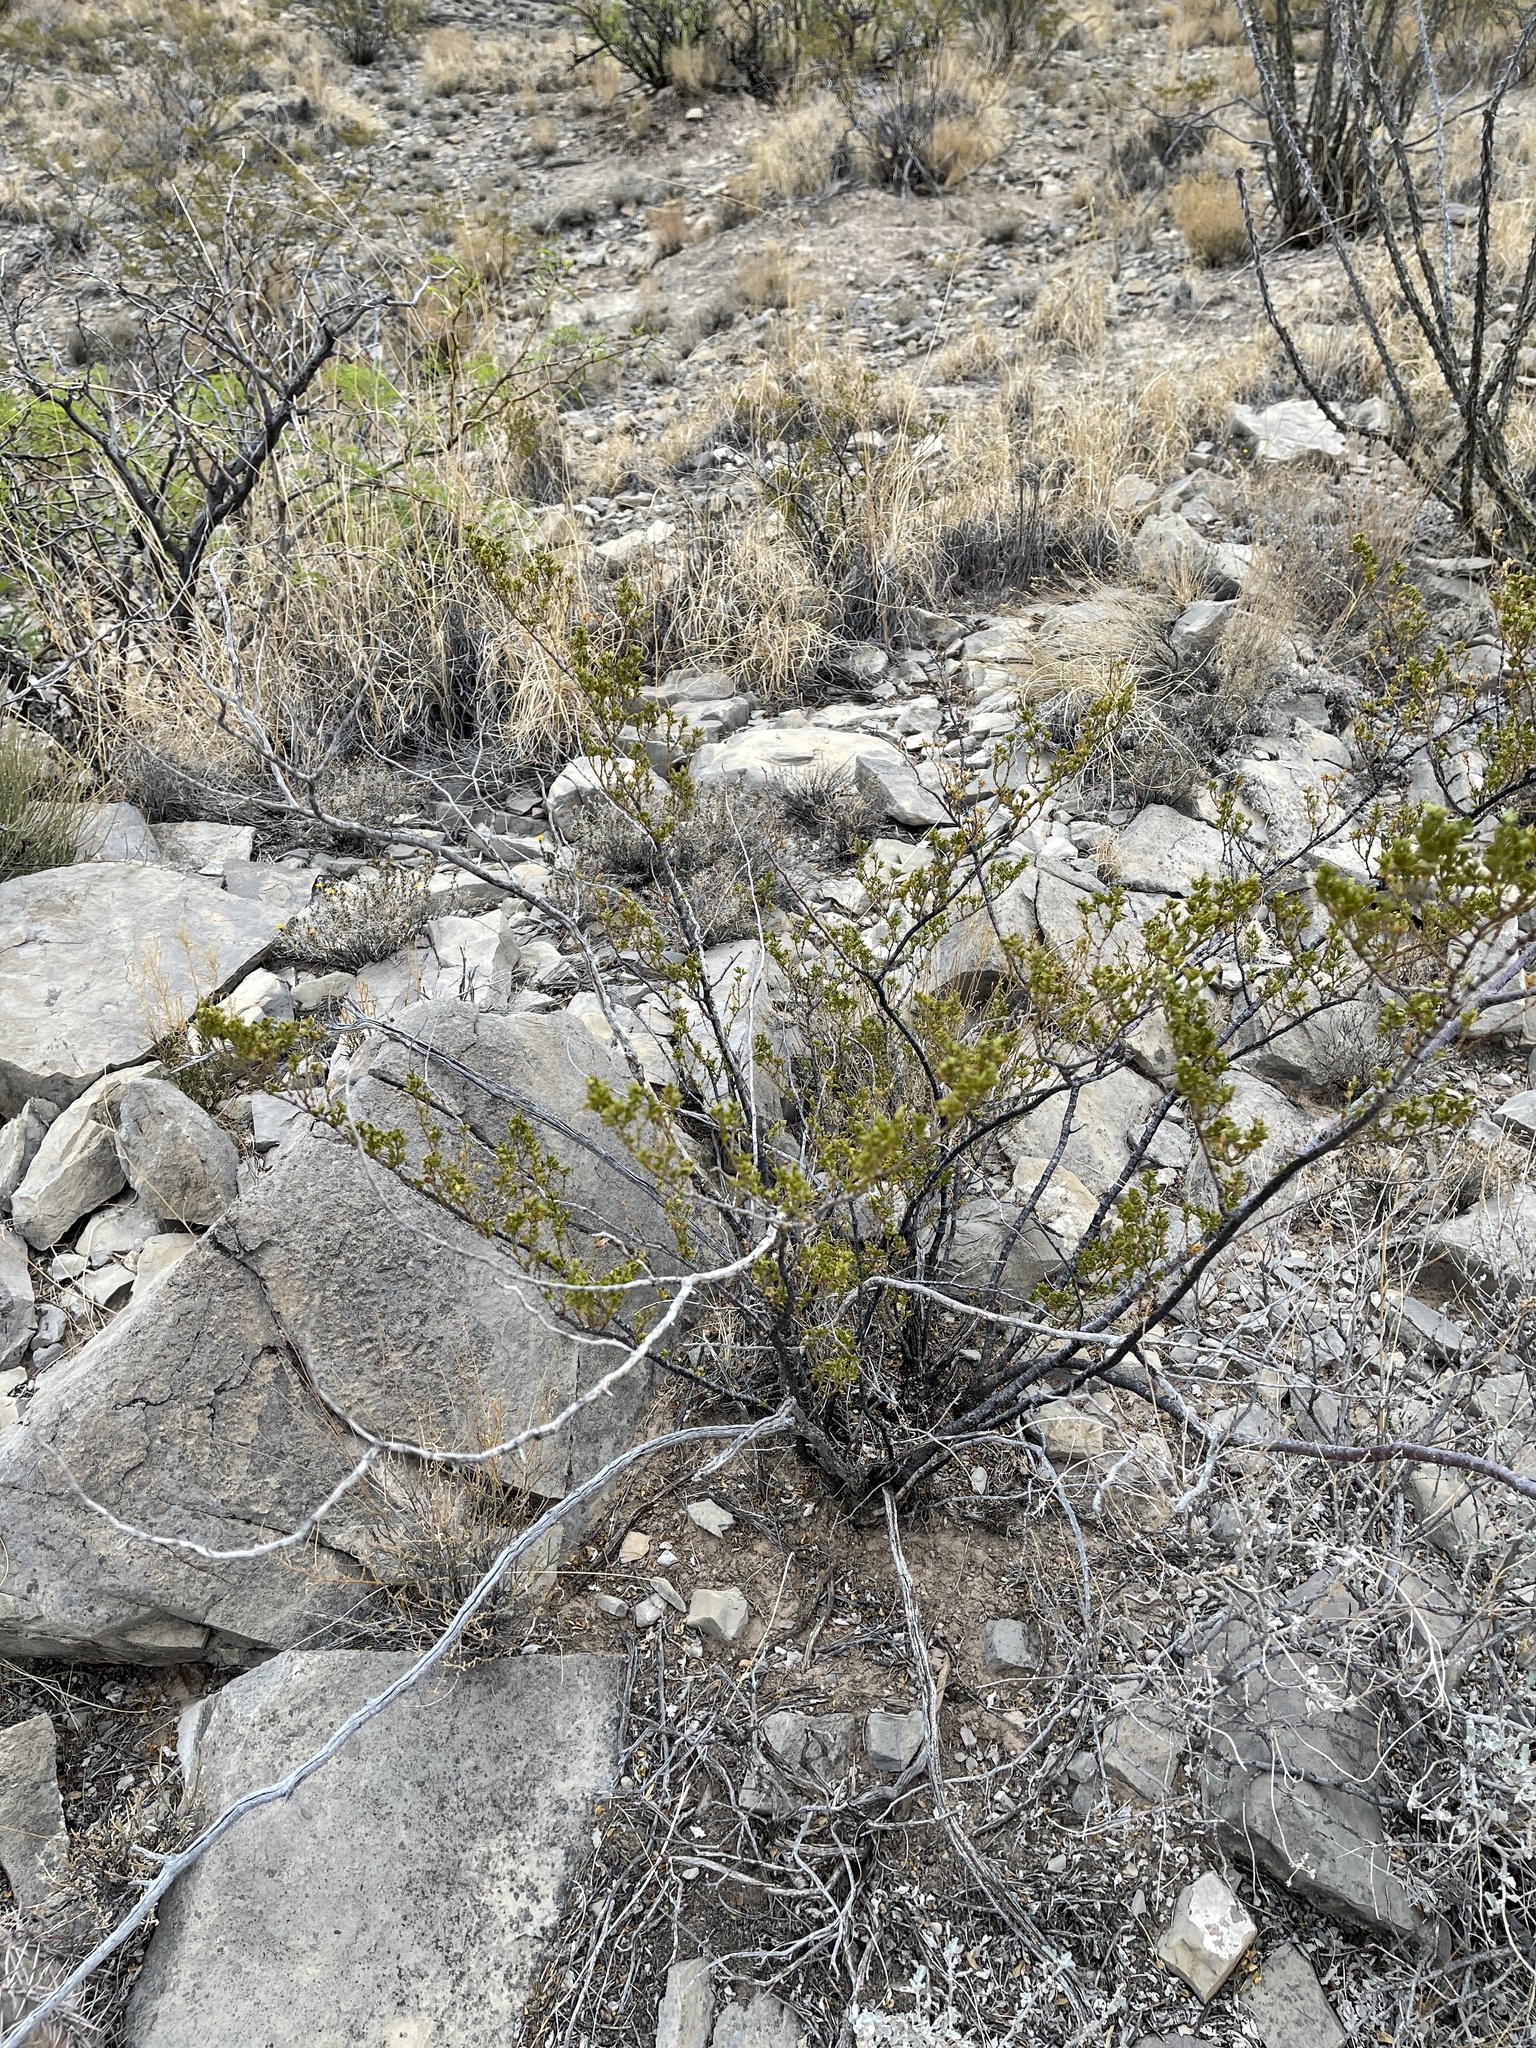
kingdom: Plantae
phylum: Tracheophyta
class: Magnoliopsida
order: Zygophyllales
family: Zygophyllaceae
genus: Larrea
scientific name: Larrea tridentata
